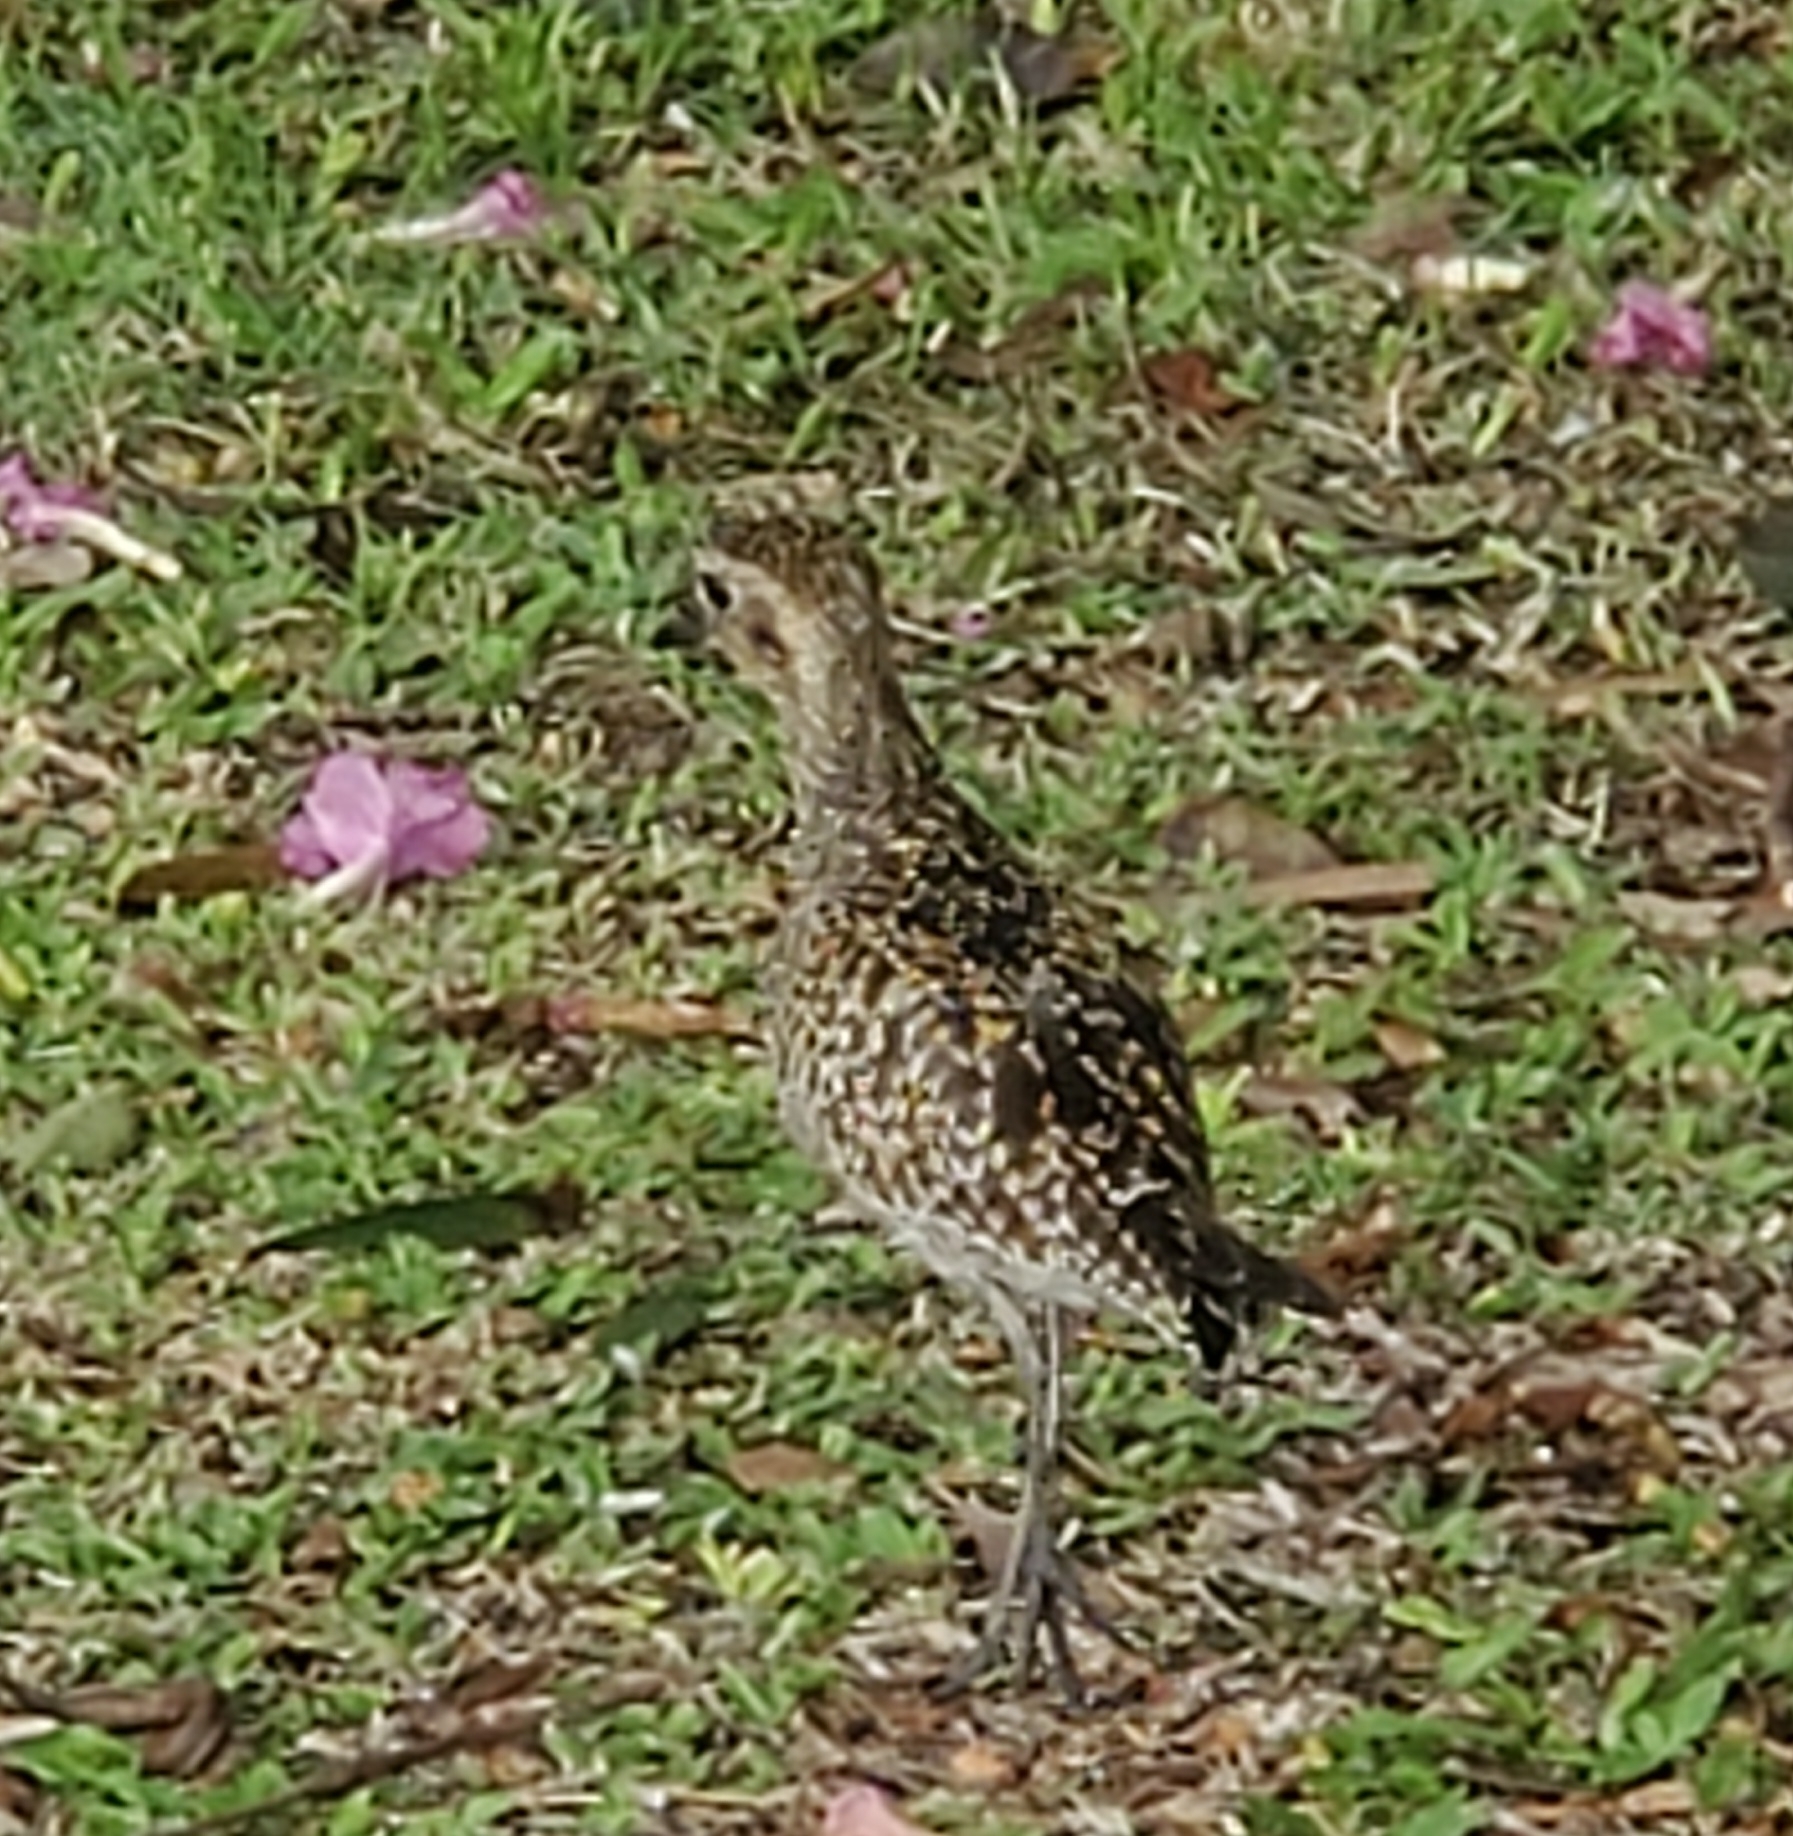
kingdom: Animalia
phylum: Chordata
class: Aves
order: Charadriiformes
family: Charadriidae
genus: Pluvialis
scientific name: Pluvialis fulva
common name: Pacific golden plover
